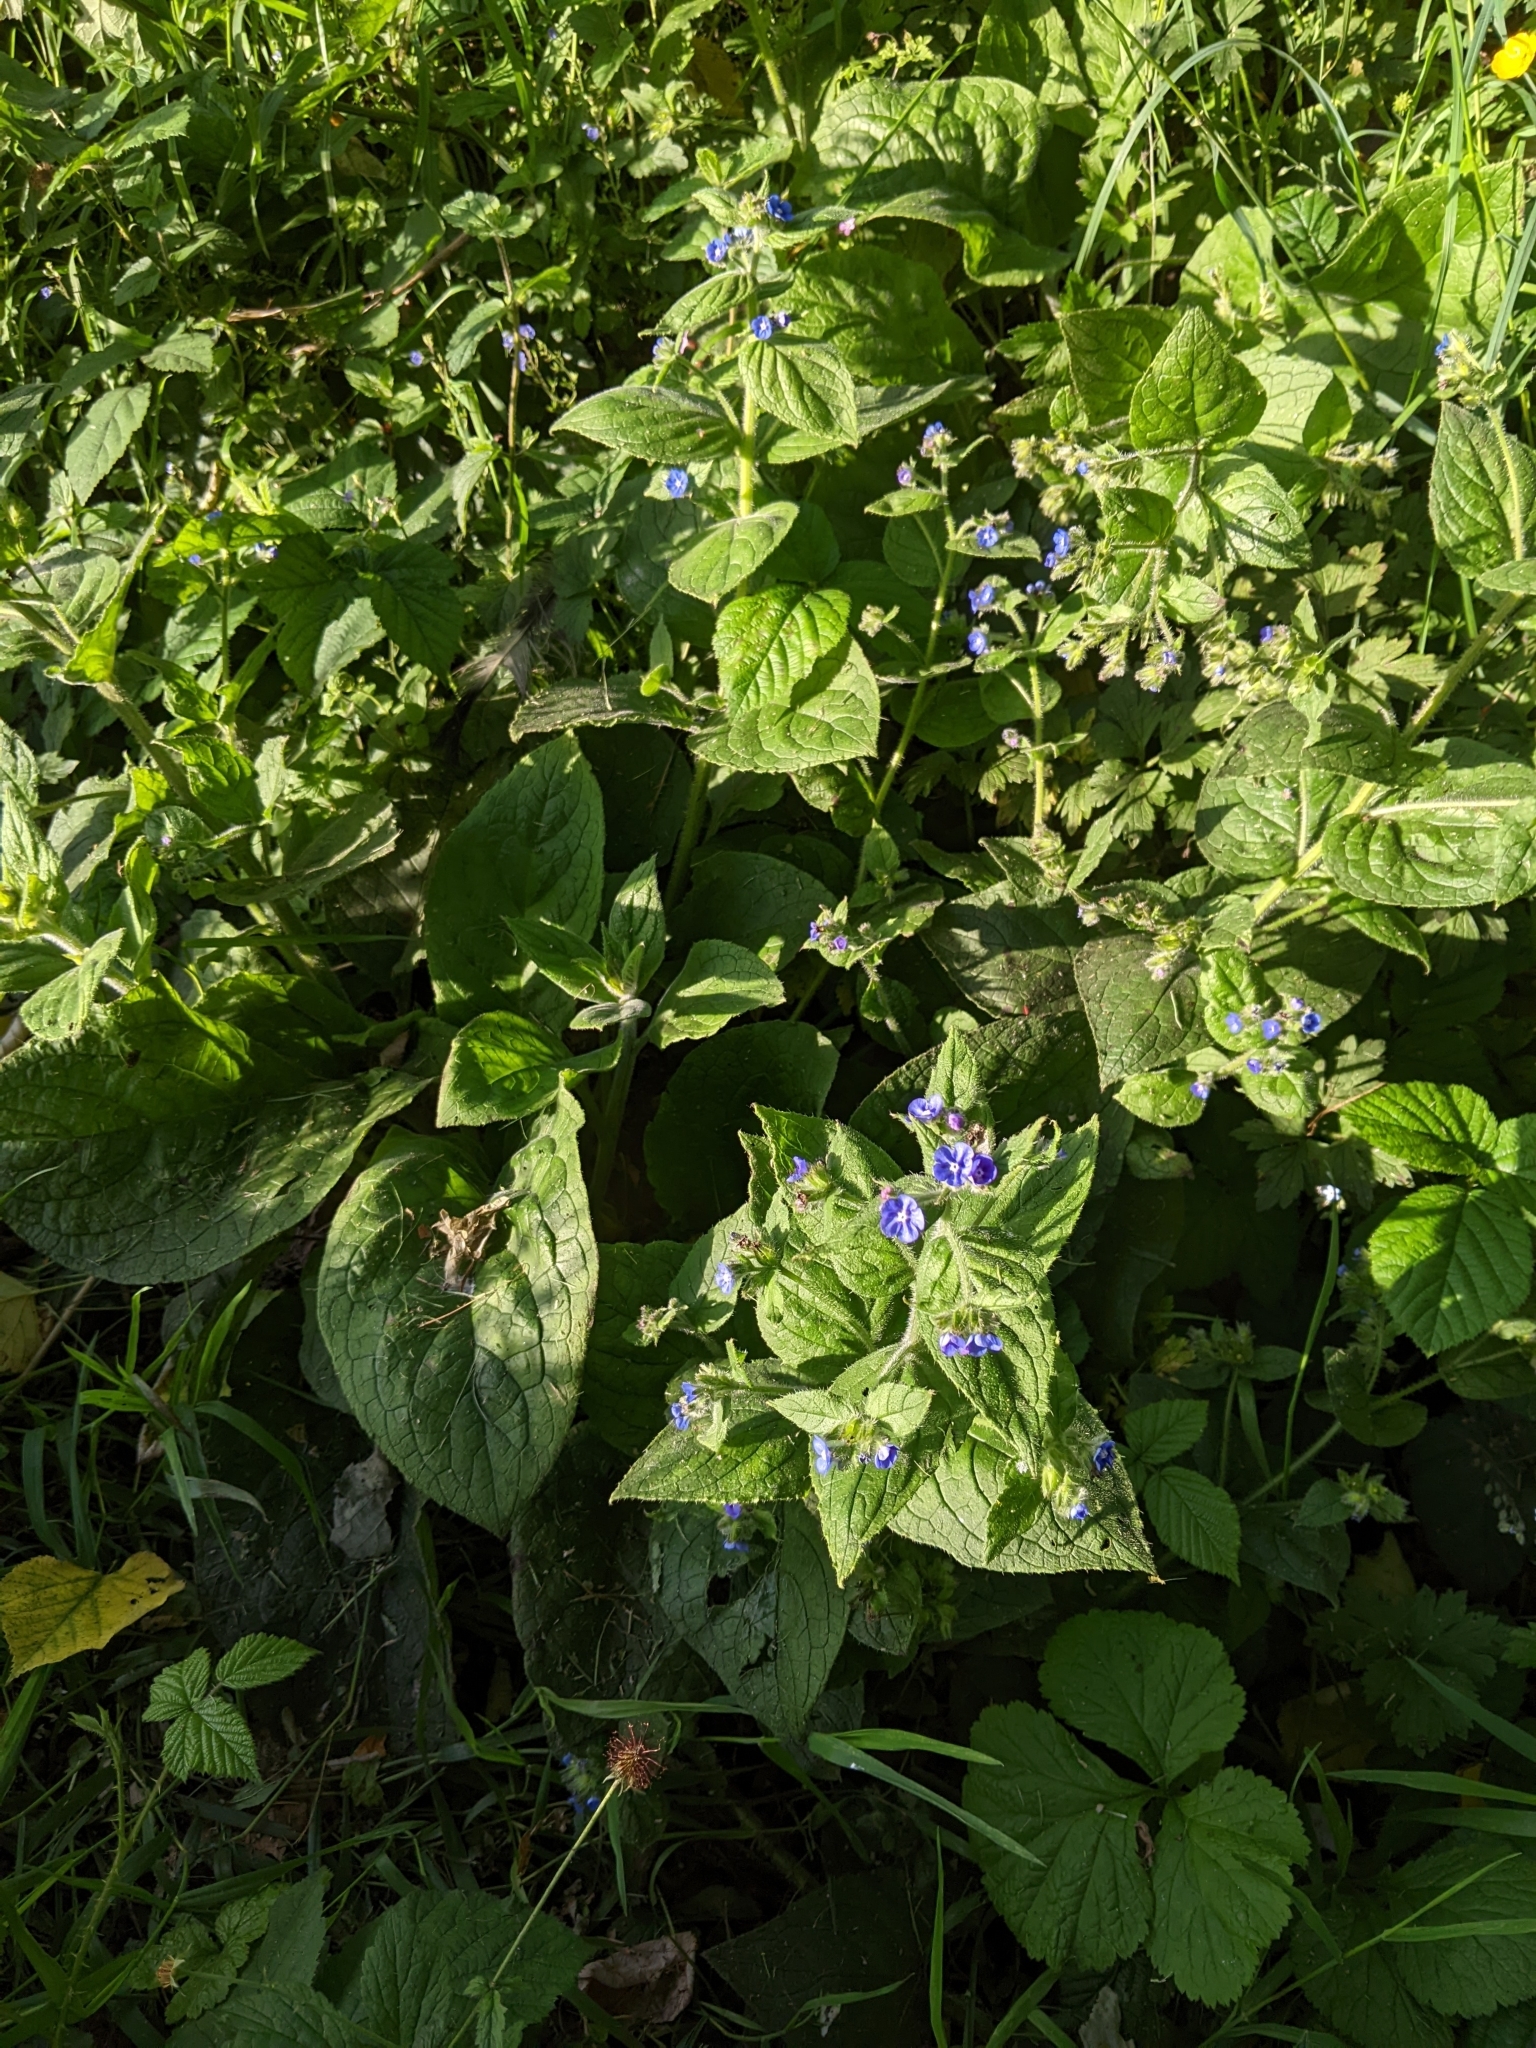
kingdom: Plantae
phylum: Tracheophyta
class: Magnoliopsida
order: Boraginales
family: Boraginaceae
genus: Pentaglottis
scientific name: Pentaglottis sempervirens
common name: Green alkanet
